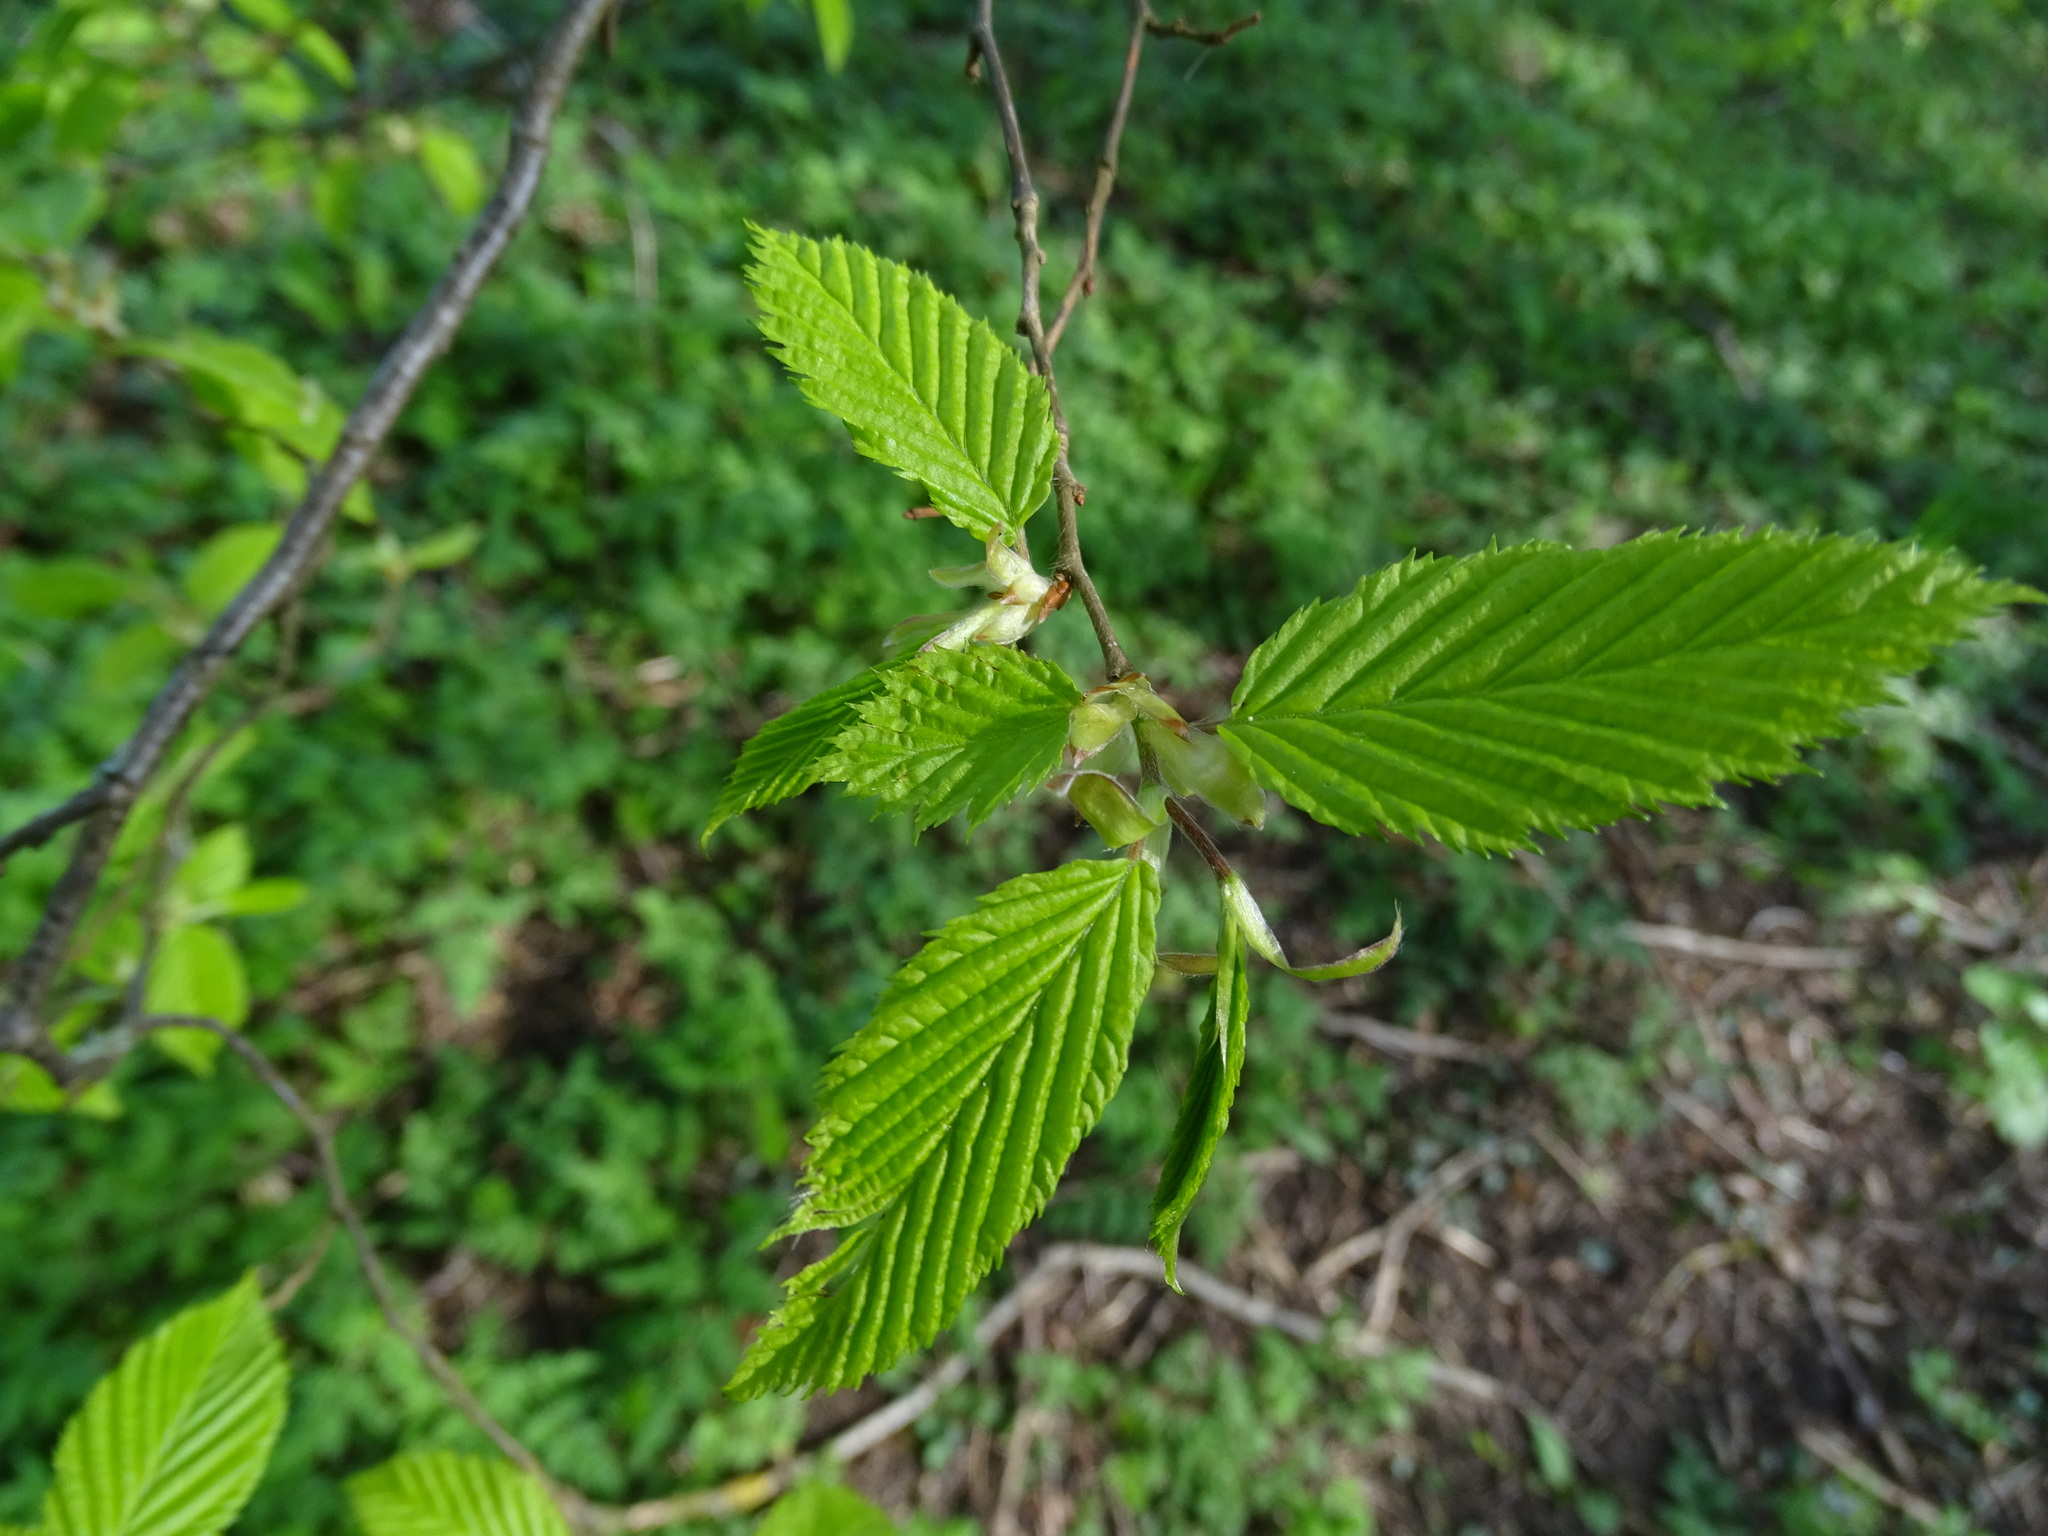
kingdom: Plantae
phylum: Tracheophyta
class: Magnoliopsida
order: Fagales
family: Betulaceae
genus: Carpinus
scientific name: Carpinus betulus
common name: Hornbeam
